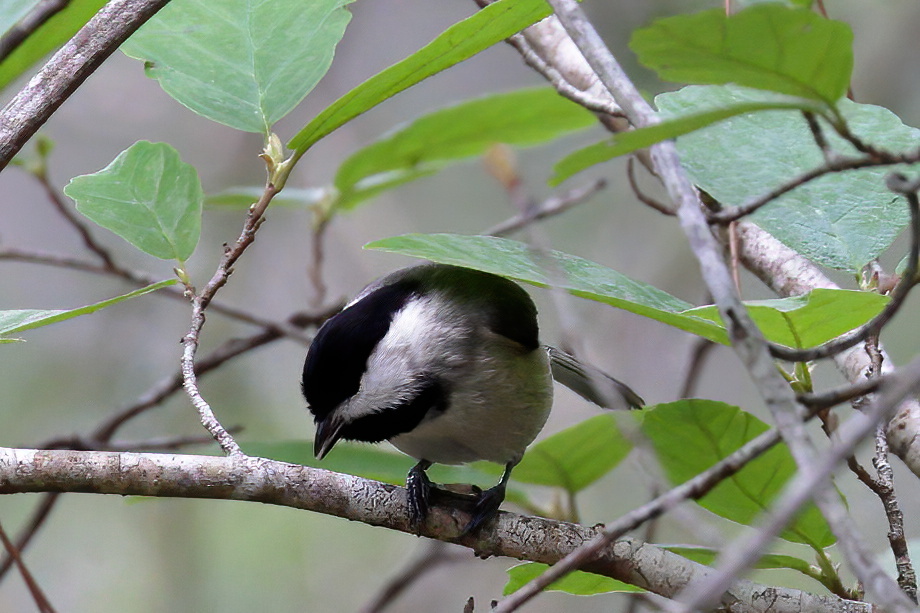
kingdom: Animalia
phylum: Chordata
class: Aves
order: Passeriformes
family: Paridae
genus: Poecile
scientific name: Poecile carolinensis
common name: Carolina chickadee
